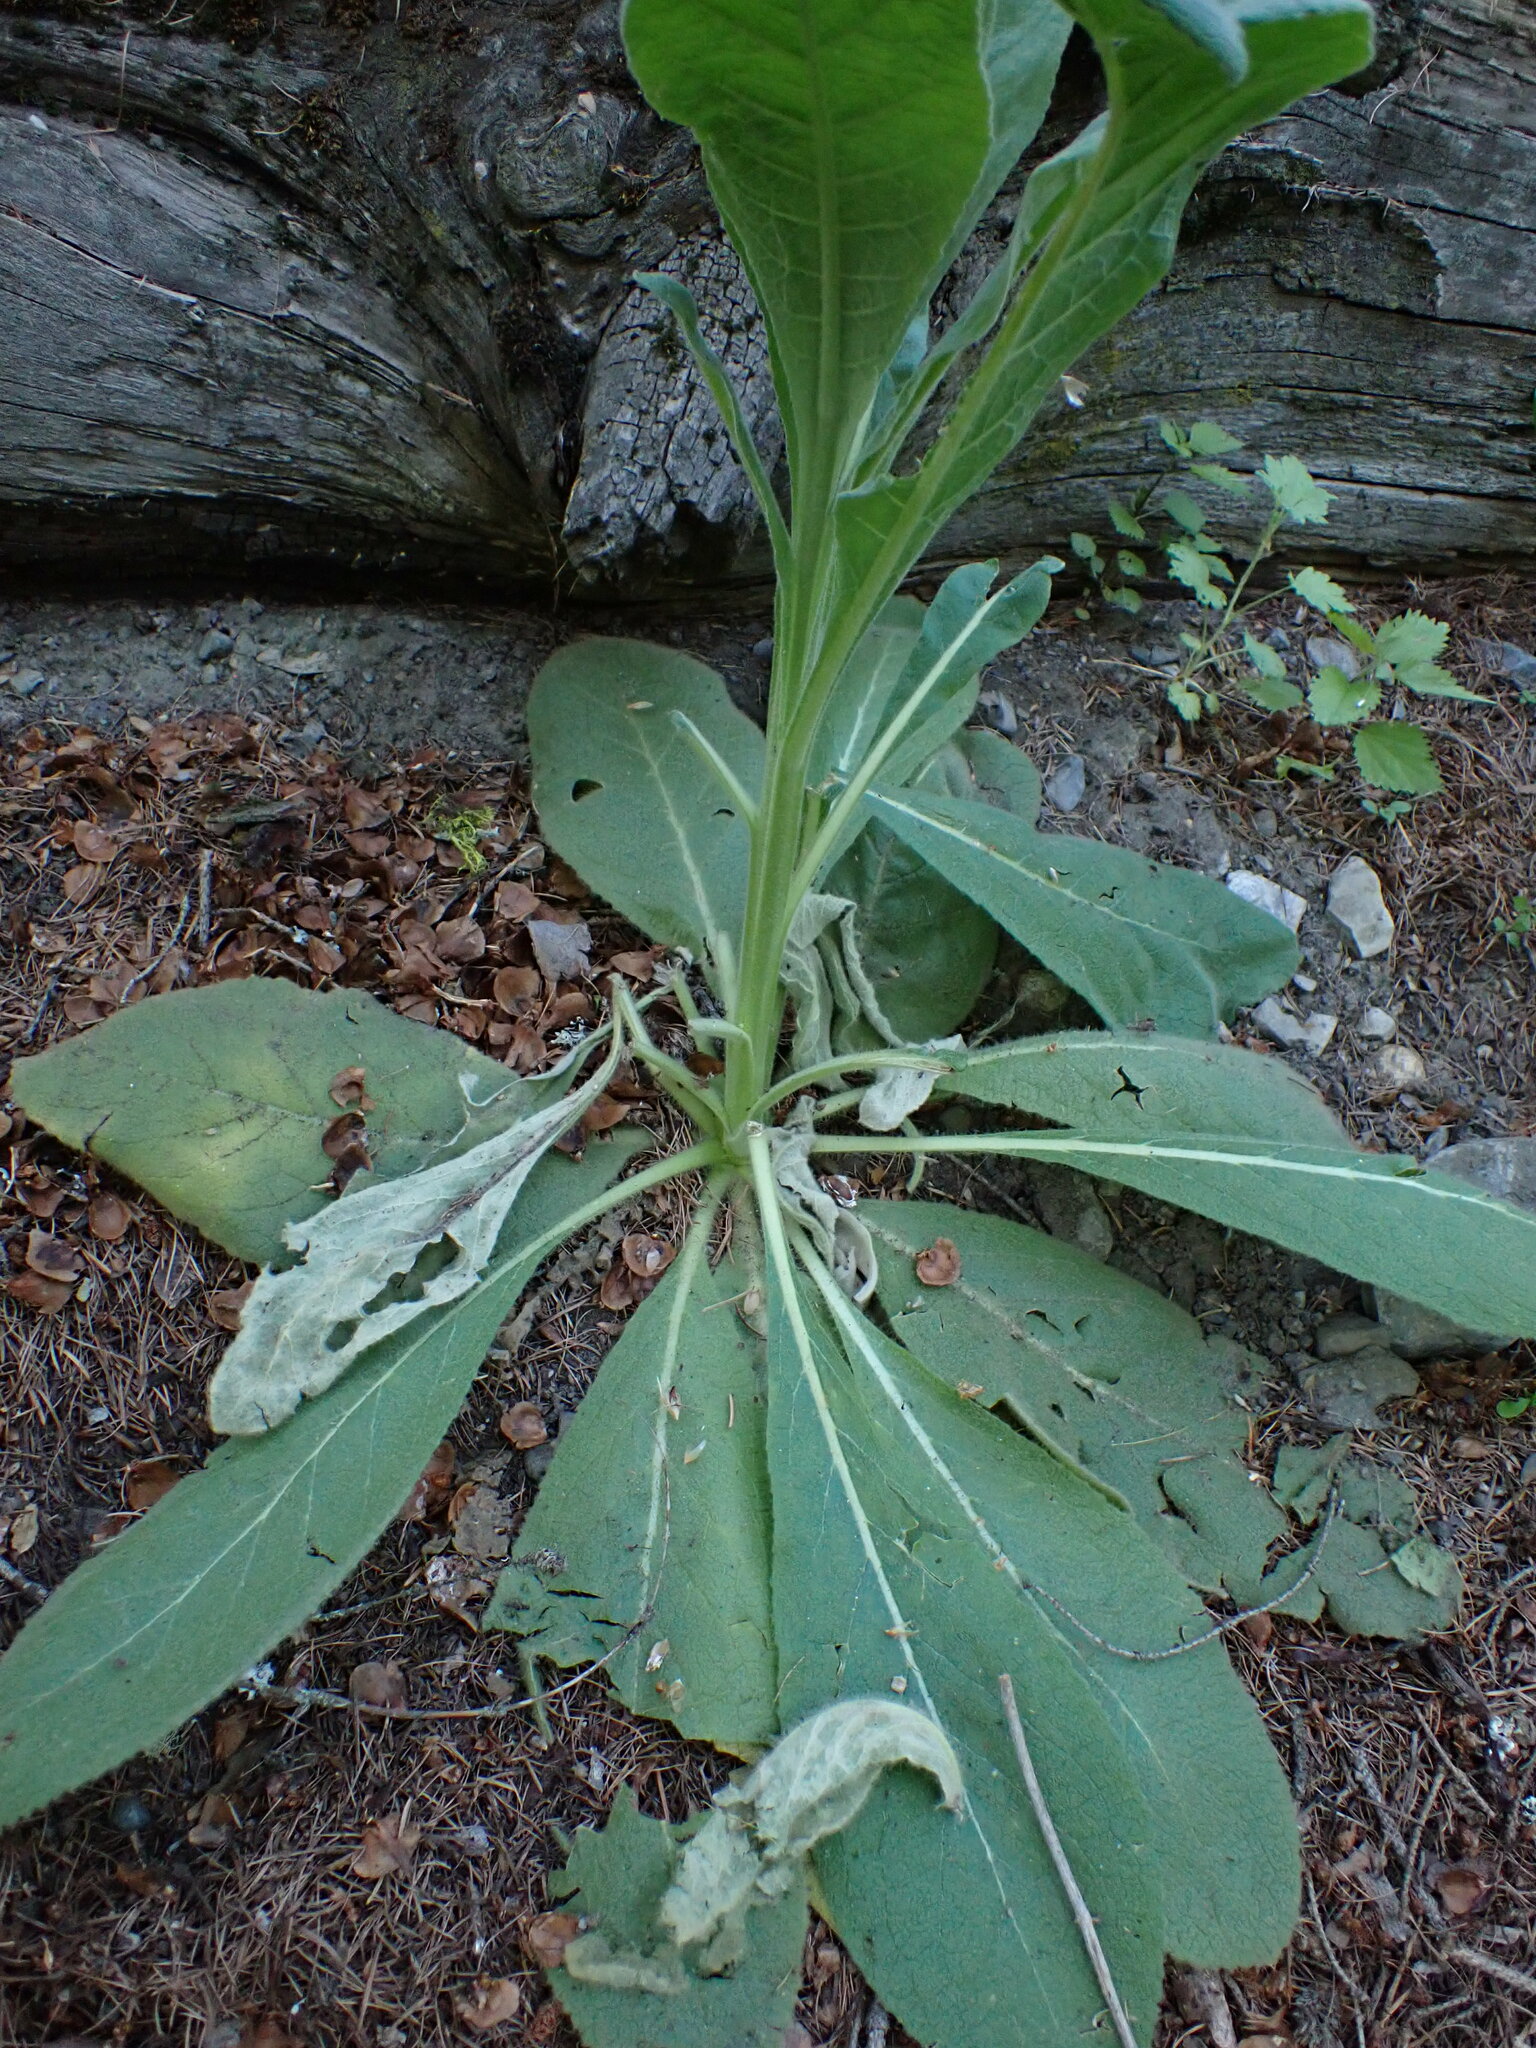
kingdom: Plantae
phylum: Tracheophyta
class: Magnoliopsida
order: Lamiales
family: Scrophulariaceae
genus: Verbascum
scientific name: Verbascum thapsus
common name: Common mullein
